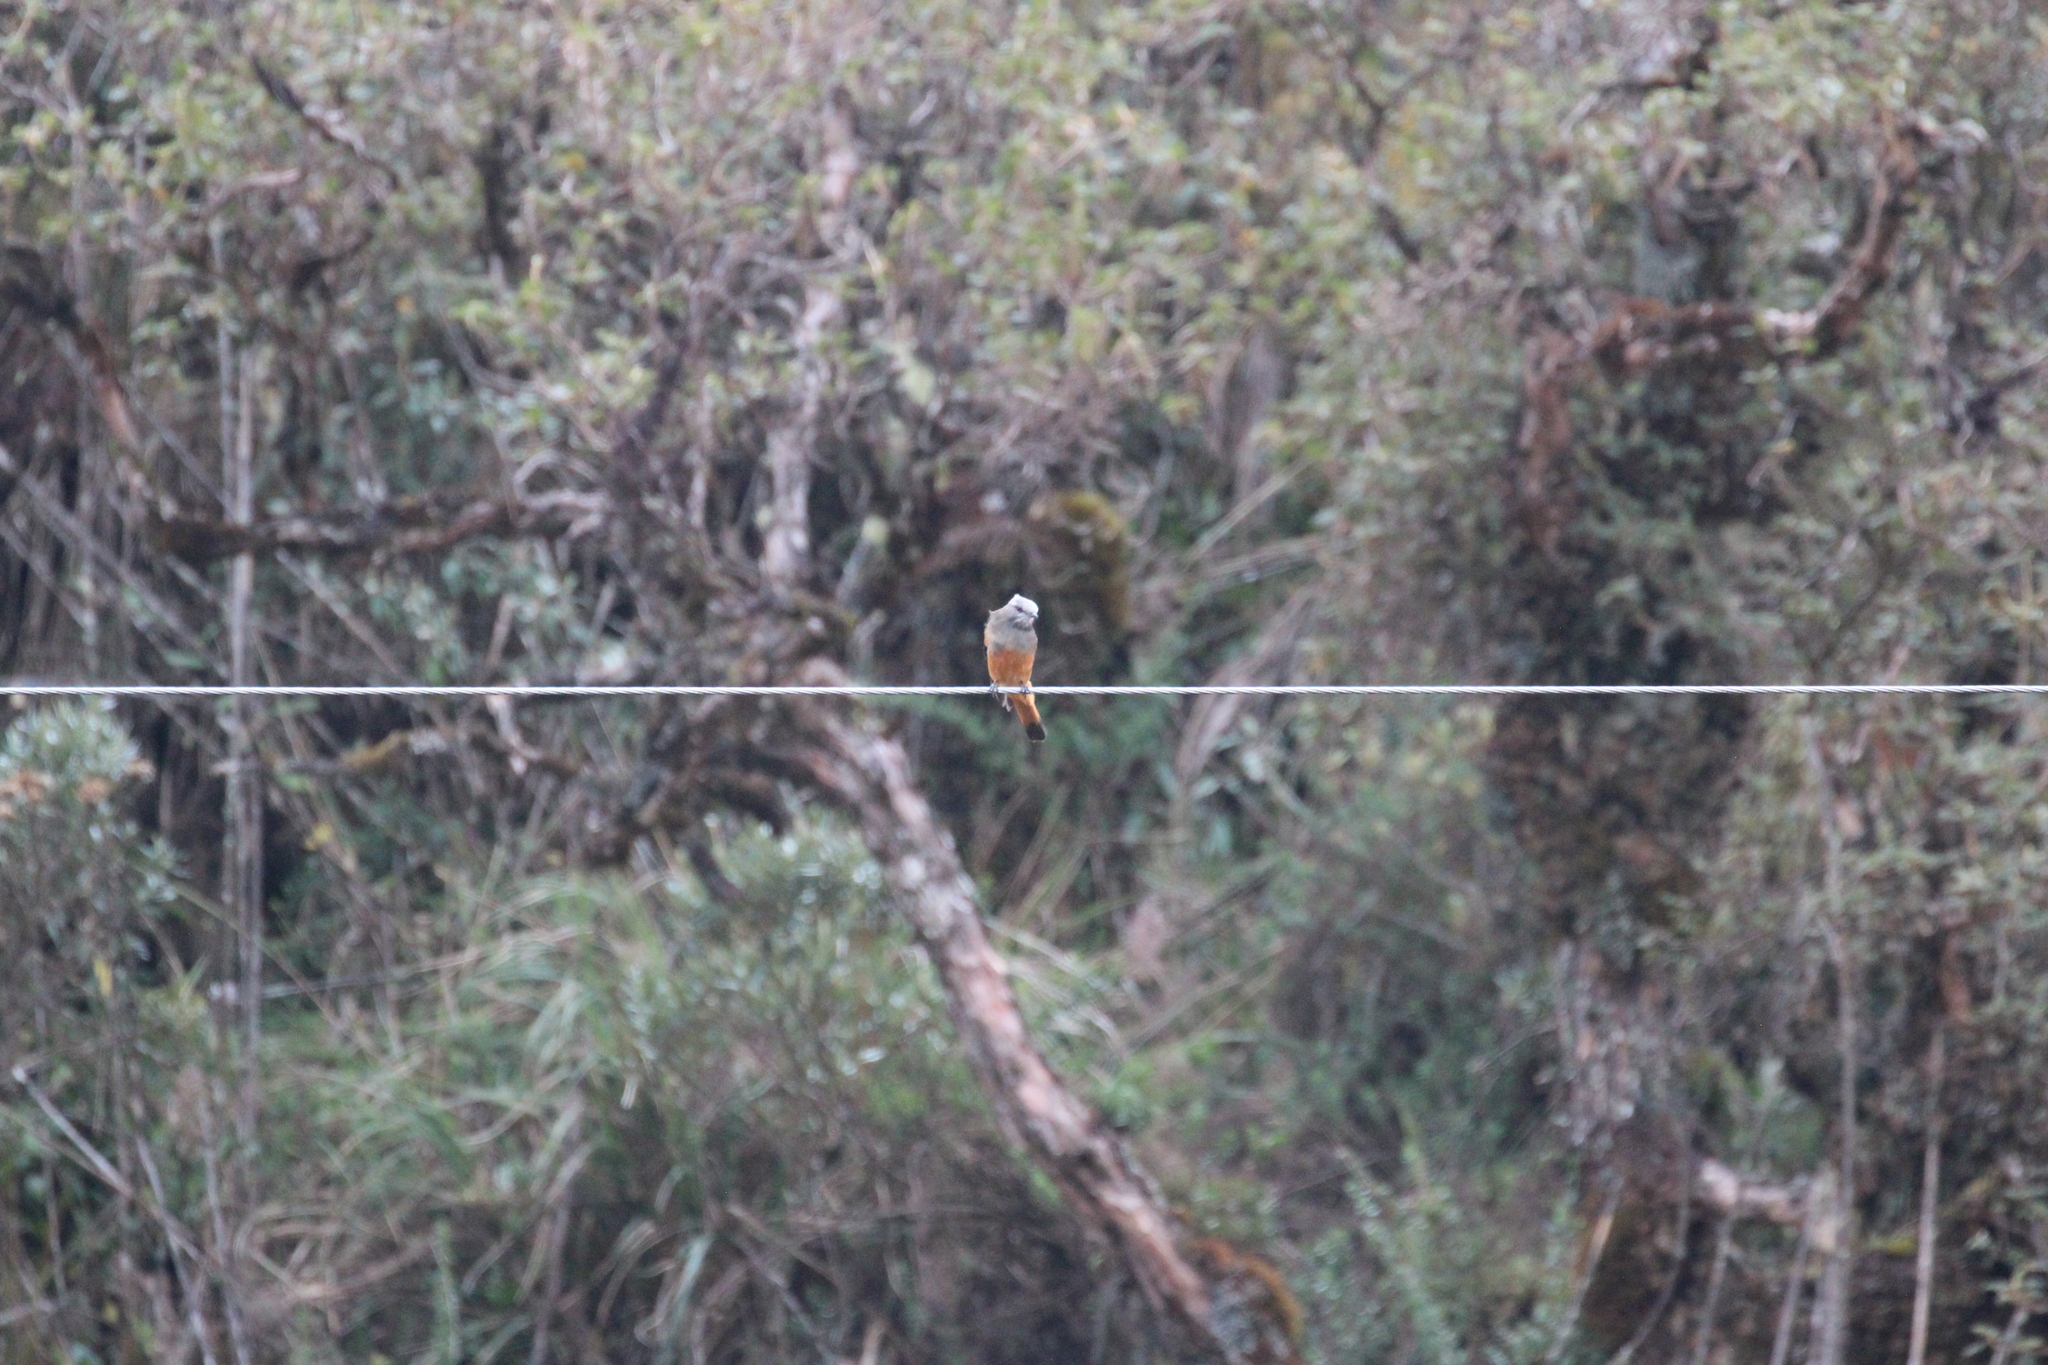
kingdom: Animalia
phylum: Chordata
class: Aves
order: Passeriformes
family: Tyrannidae
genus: Cnemarchus
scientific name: Cnemarchus erythropygius
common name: Red-rumped bush tyrant
